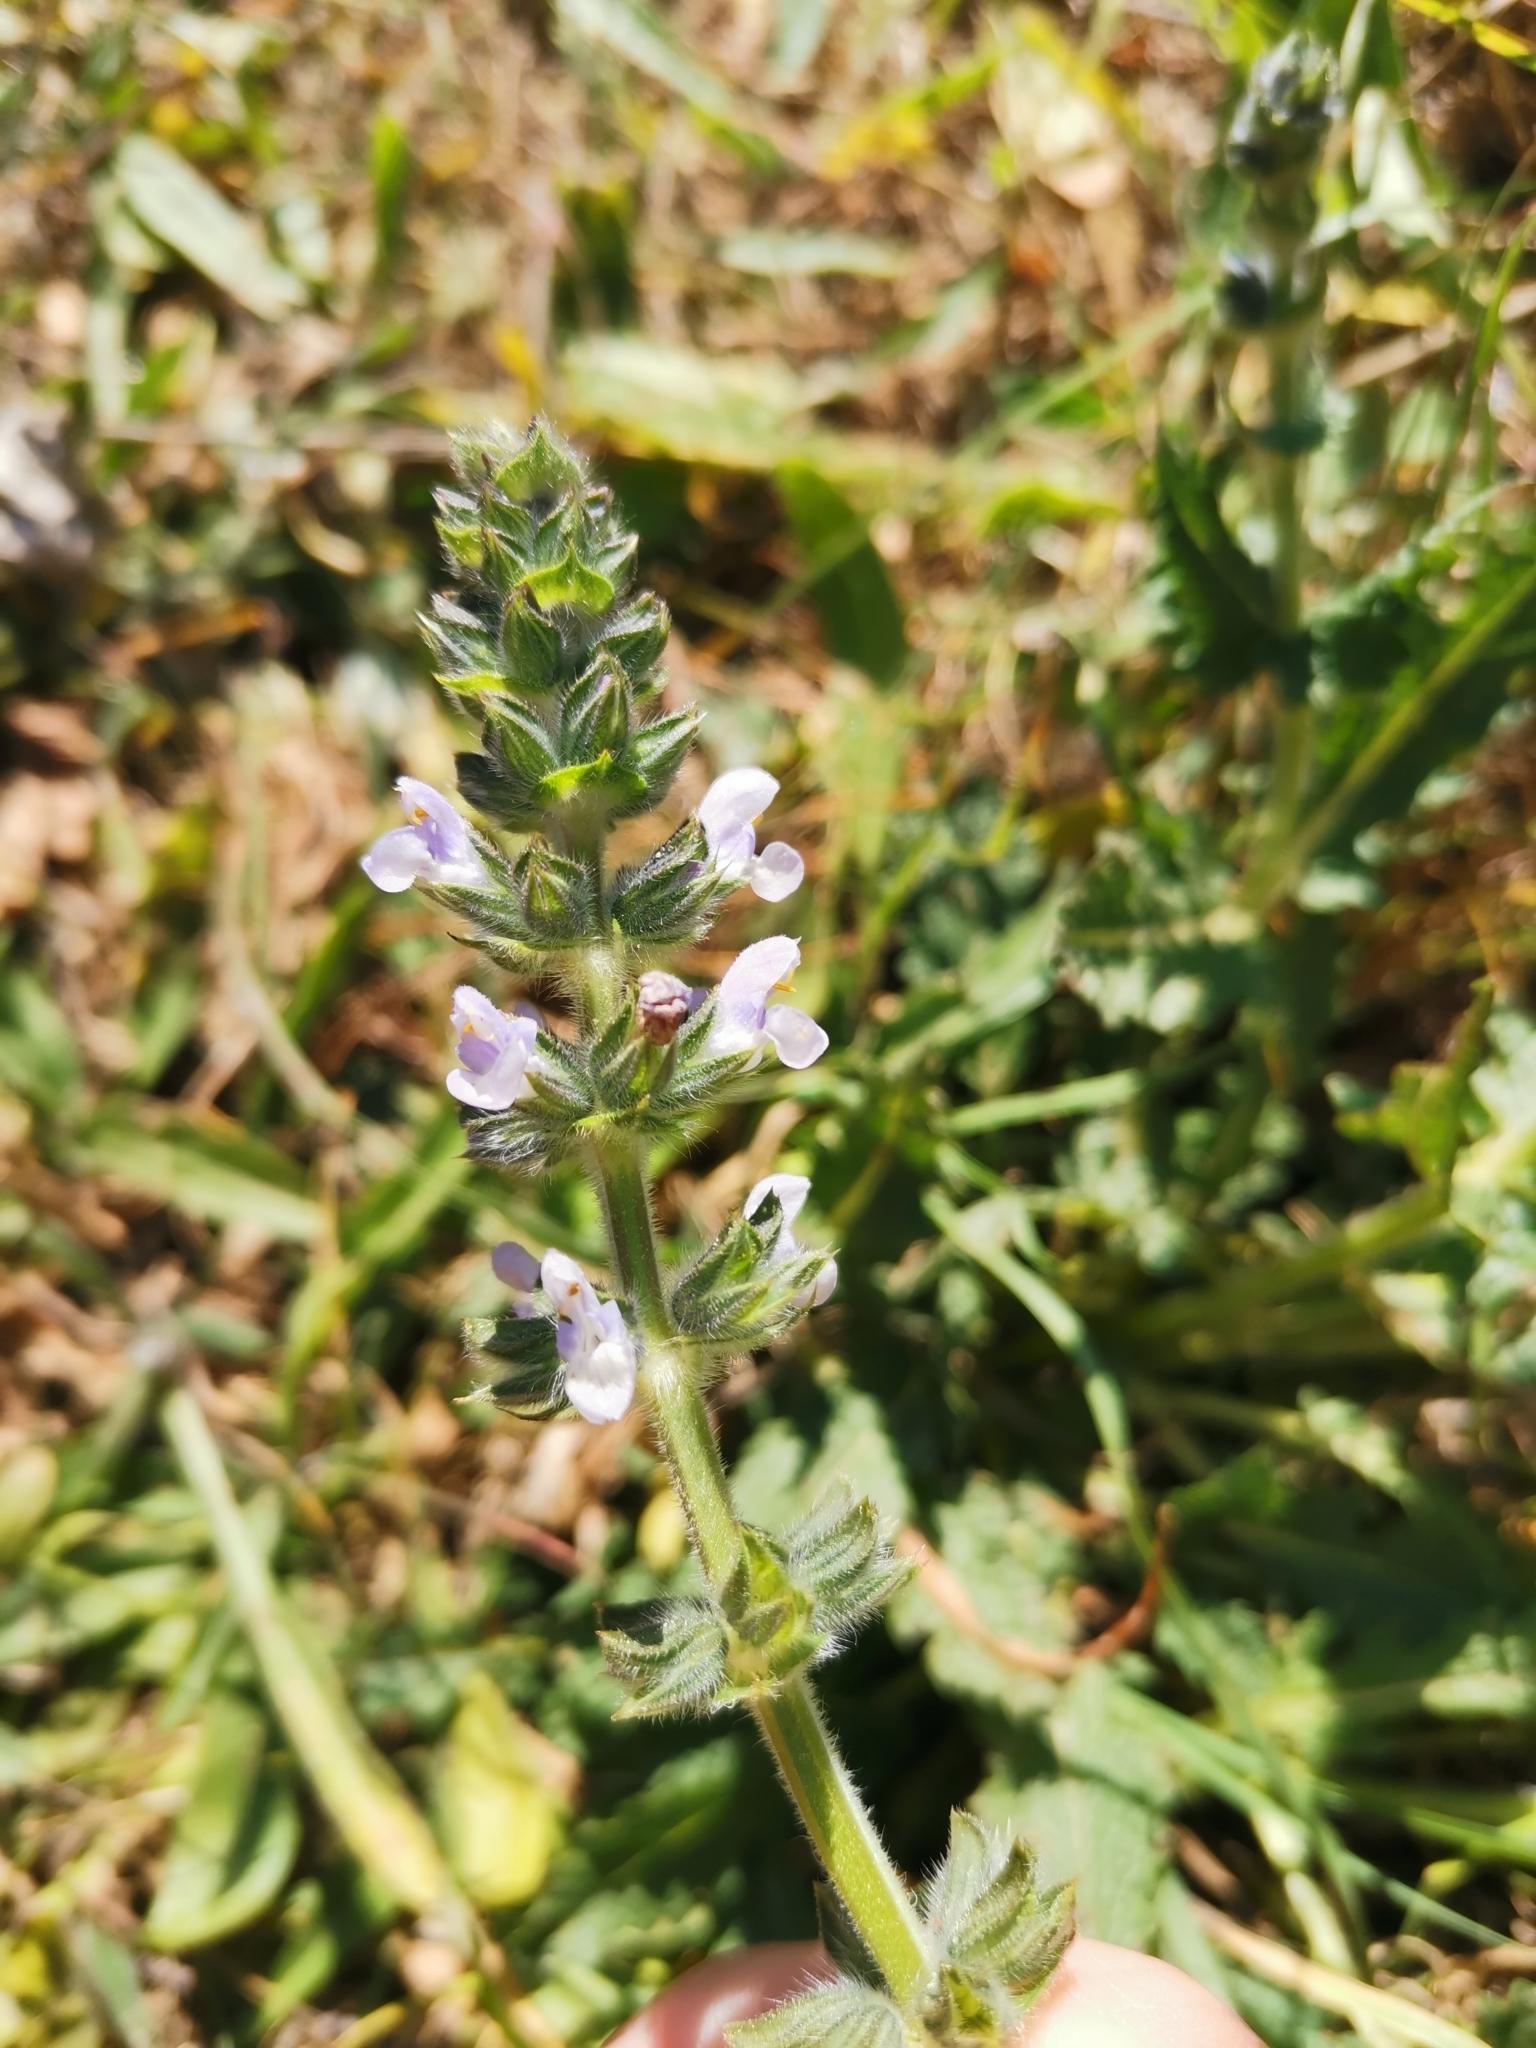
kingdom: Plantae
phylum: Tracheophyta
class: Magnoliopsida
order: Lamiales
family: Lamiaceae
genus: Salvia
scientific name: Salvia verbenaca
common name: Wild clary
